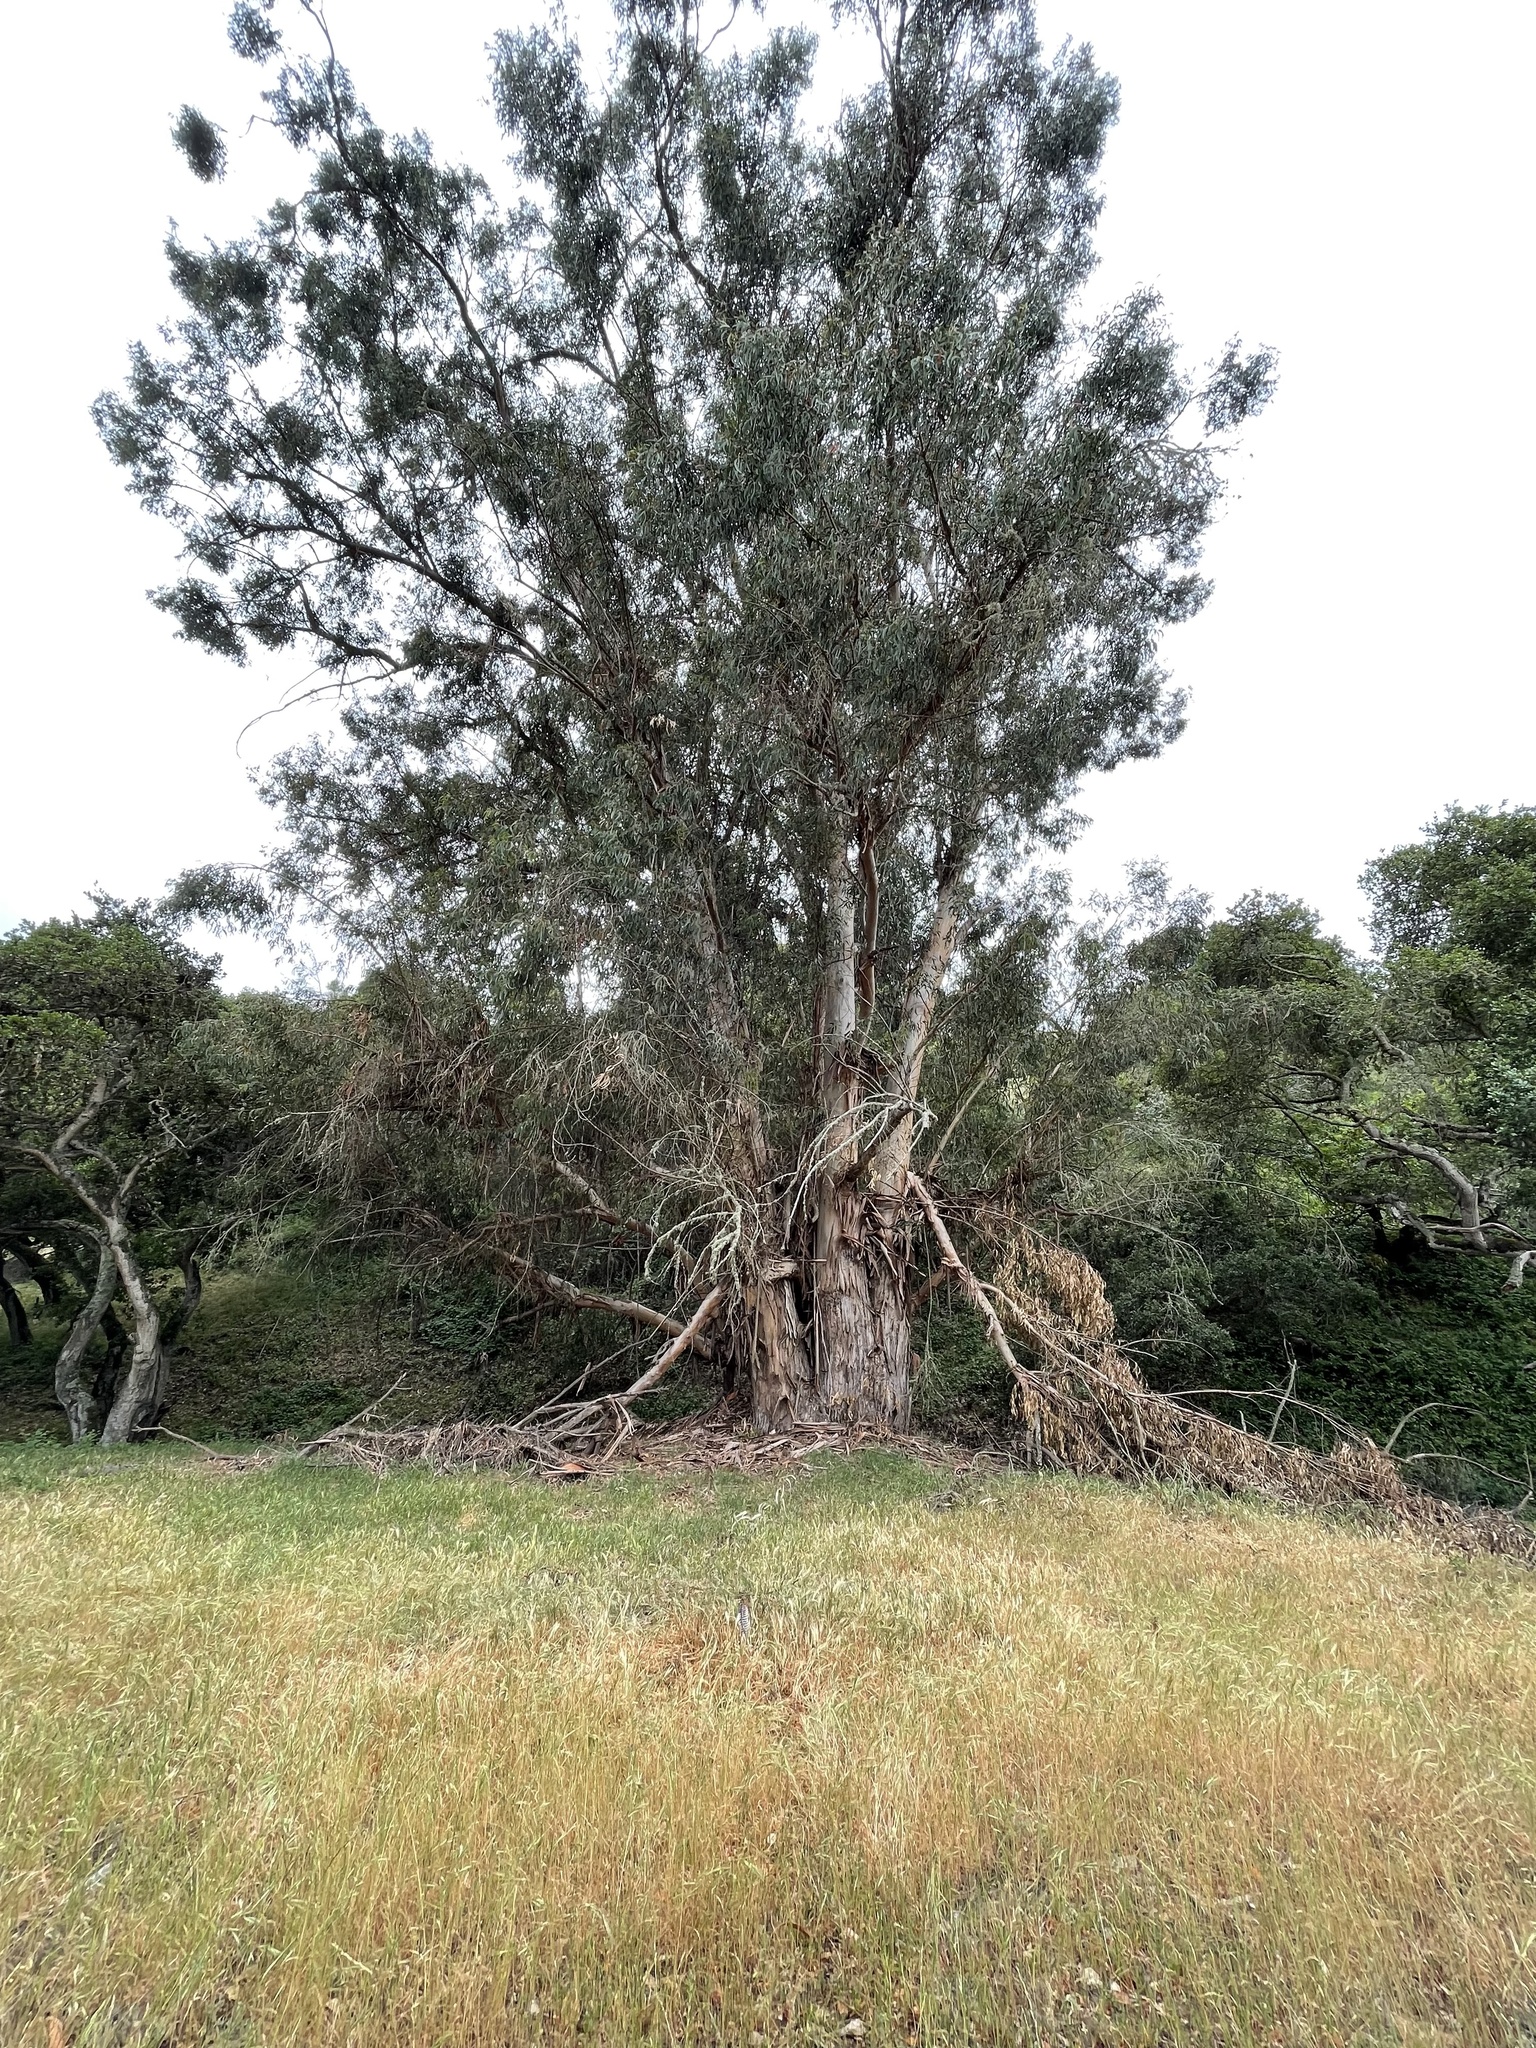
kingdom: Animalia
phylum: Chordata
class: Aves
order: Galliformes
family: Phasianidae
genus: Meleagris
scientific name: Meleagris gallopavo
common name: Wild turkey
